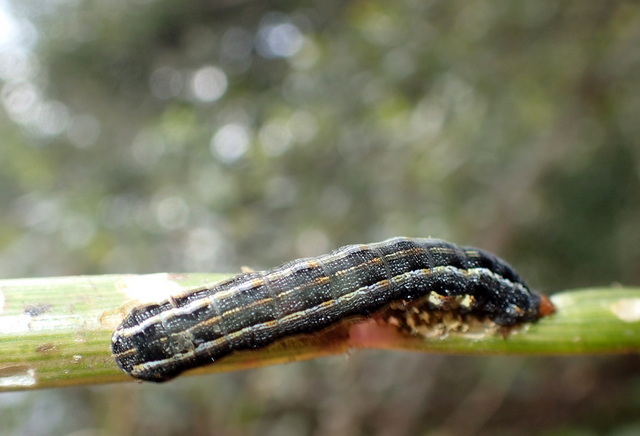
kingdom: Animalia
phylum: Arthropoda
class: Insecta
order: Lepidoptera
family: Noctuidae
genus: Spodoptera
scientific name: Spodoptera eridania
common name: Southern army worm
